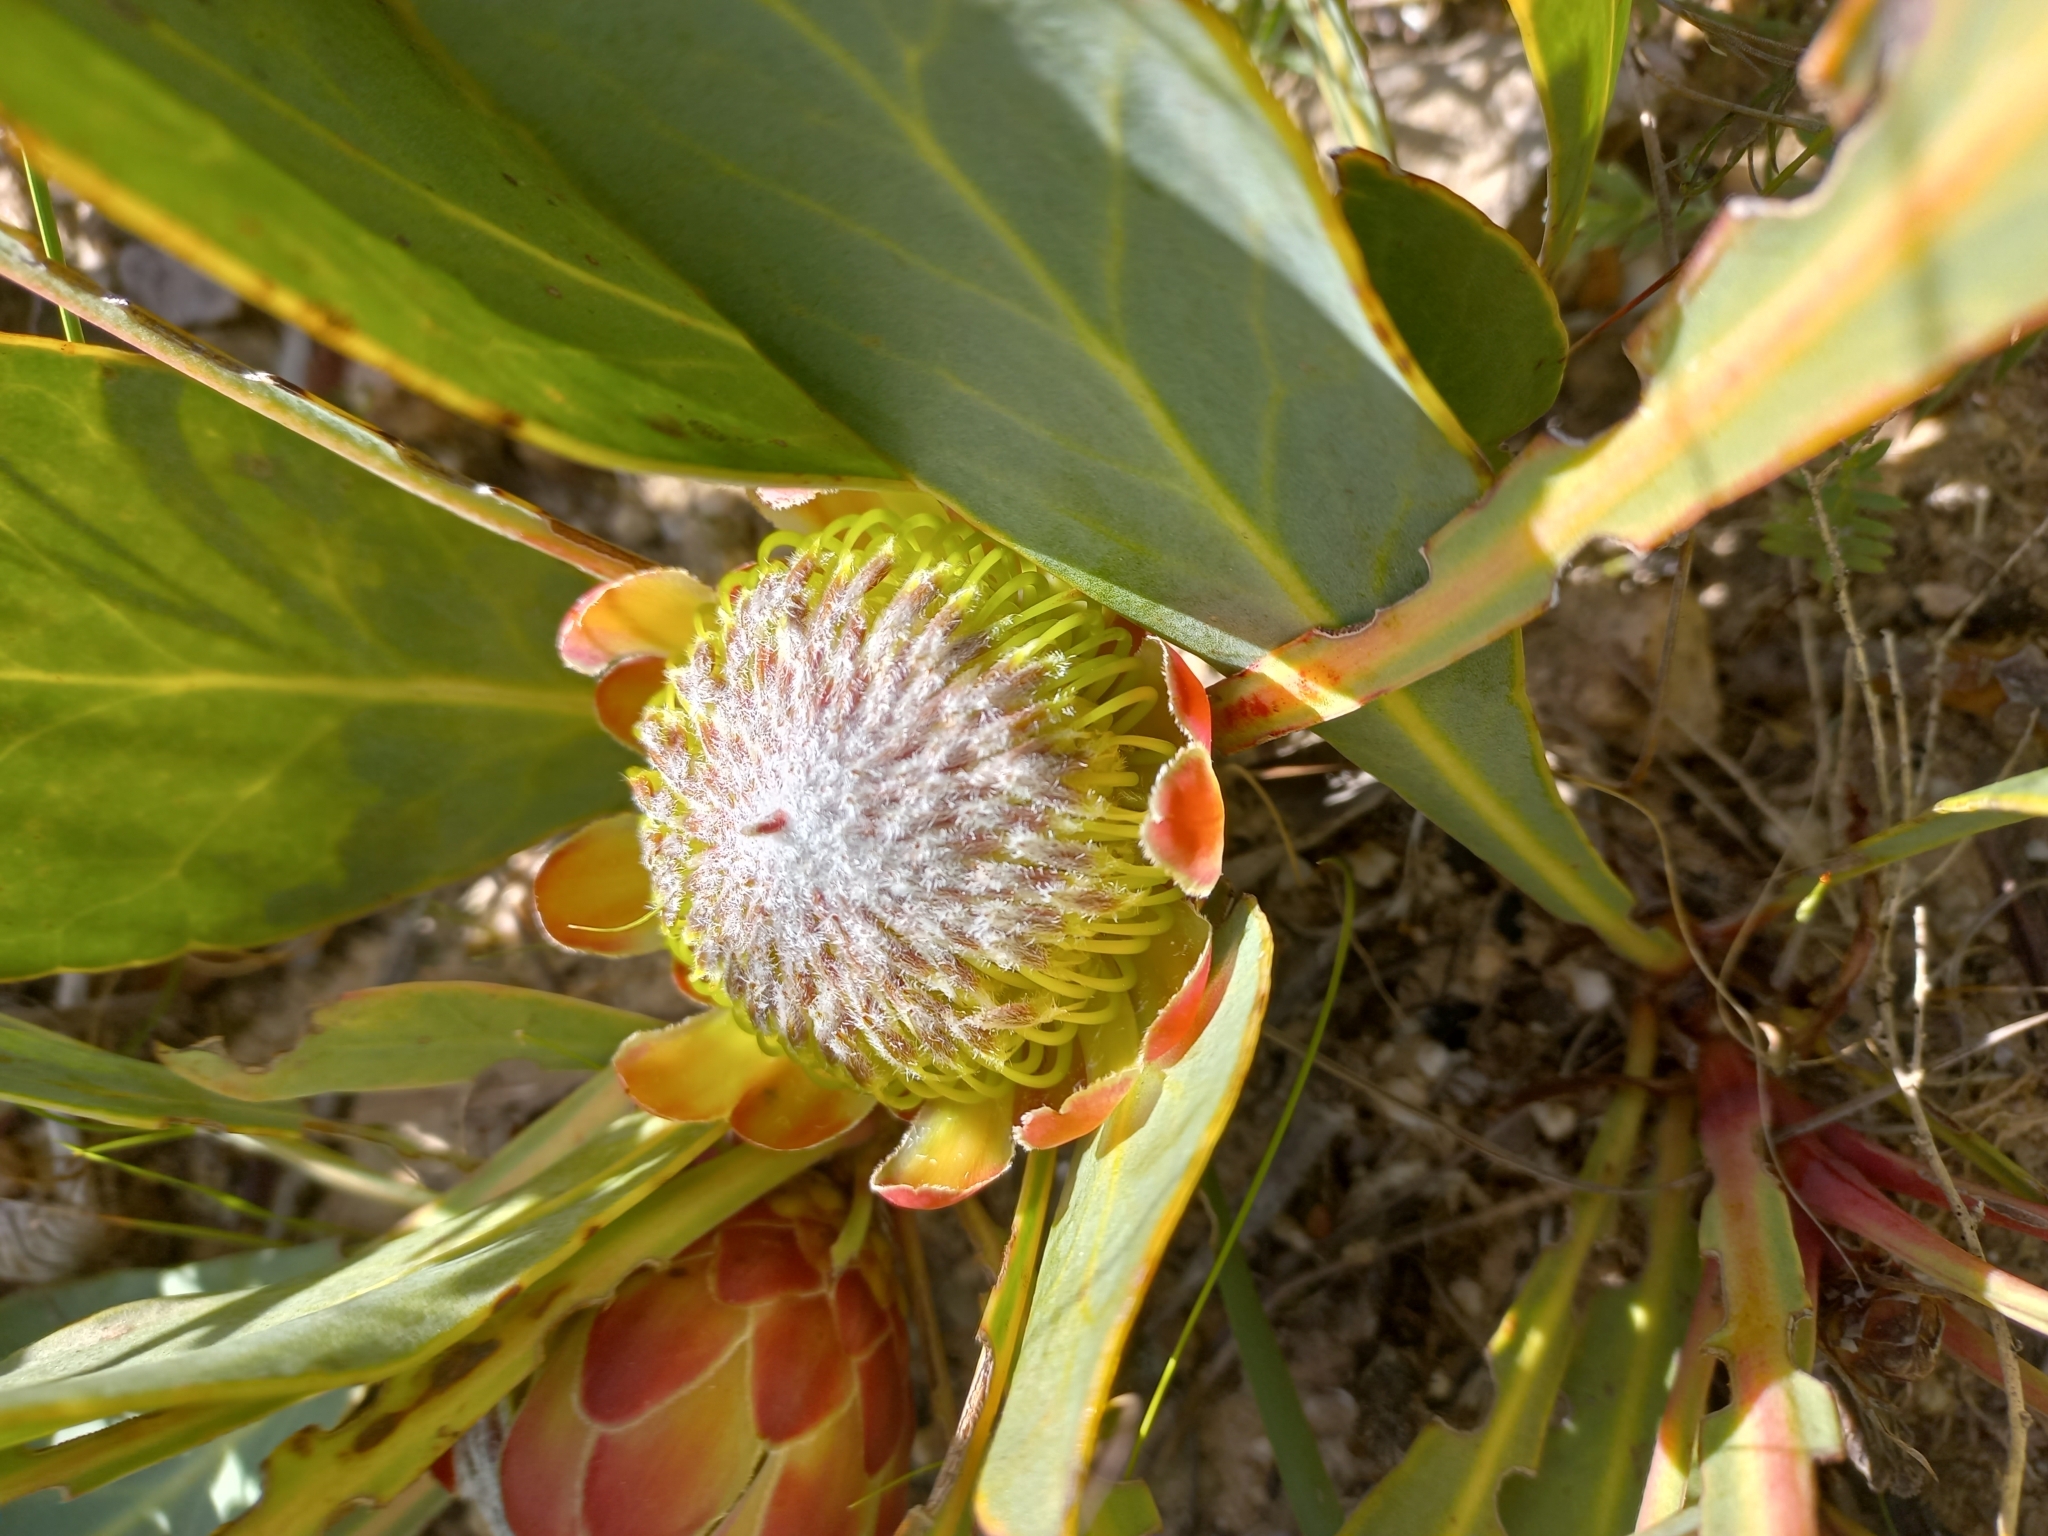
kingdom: Plantae
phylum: Tracheophyta
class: Magnoliopsida
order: Proteales
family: Proteaceae
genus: Protea
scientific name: Protea acaulos
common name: Common ground sugarbush
